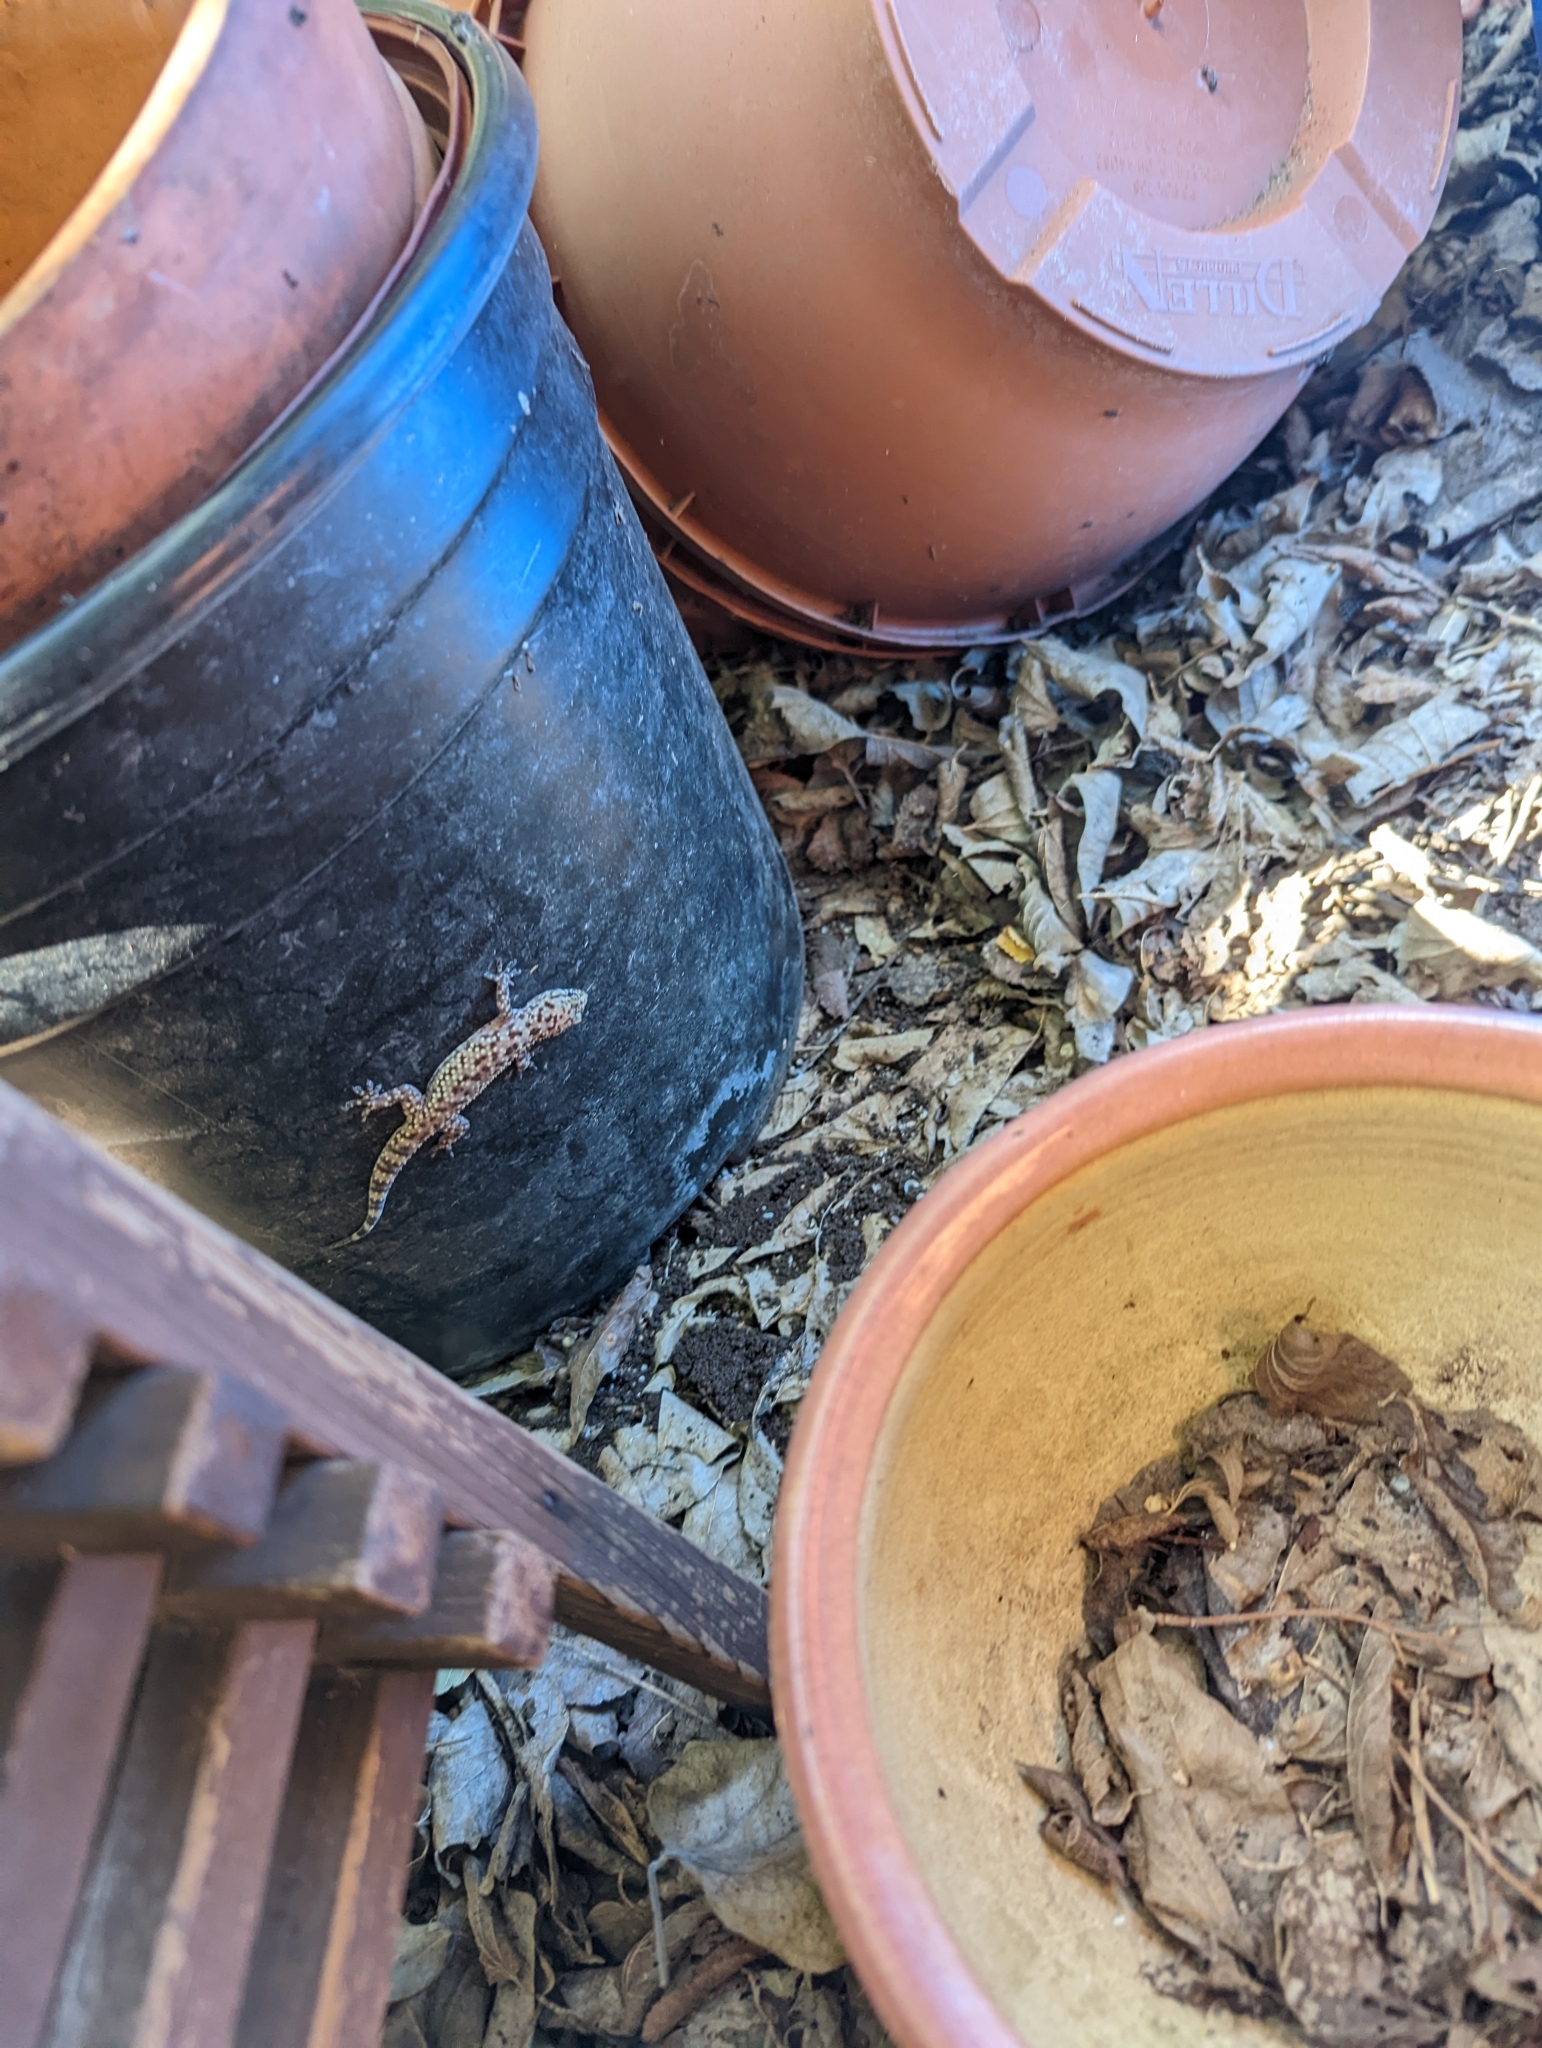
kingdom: Animalia
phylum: Chordata
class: Squamata
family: Gekkonidae
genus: Hemidactylus
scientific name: Hemidactylus turcicus
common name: Turkish gecko
